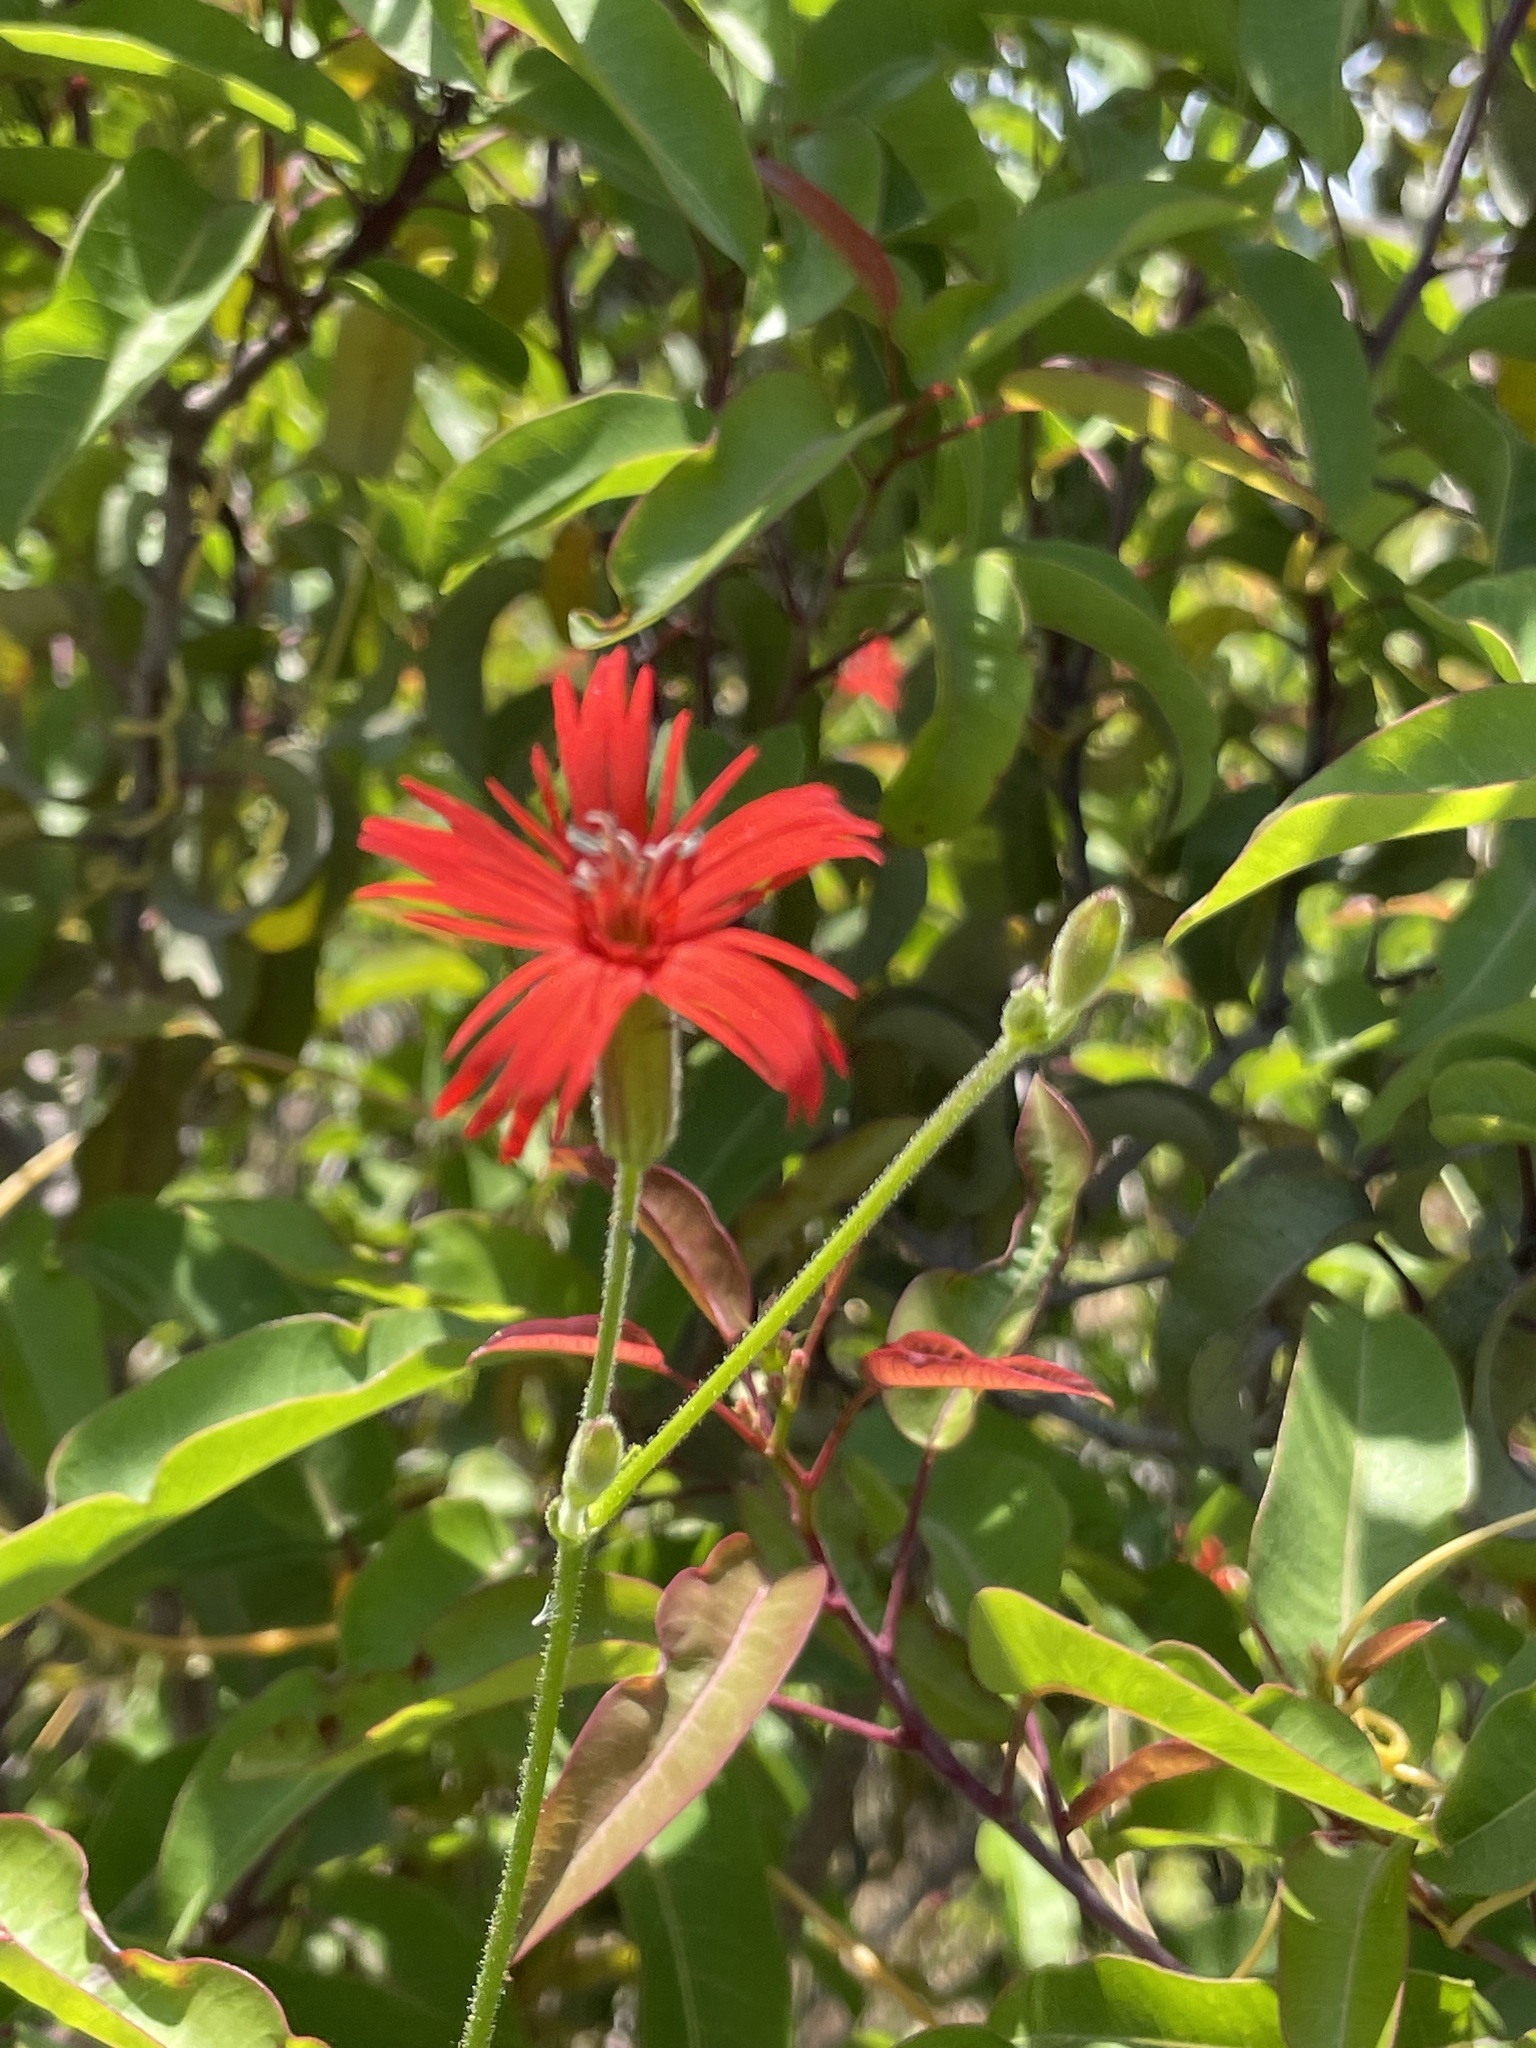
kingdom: Plantae
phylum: Tracheophyta
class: Magnoliopsida
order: Caryophyllales
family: Caryophyllaceae
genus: Silene
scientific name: Silene laciniata
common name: Indian-pink
